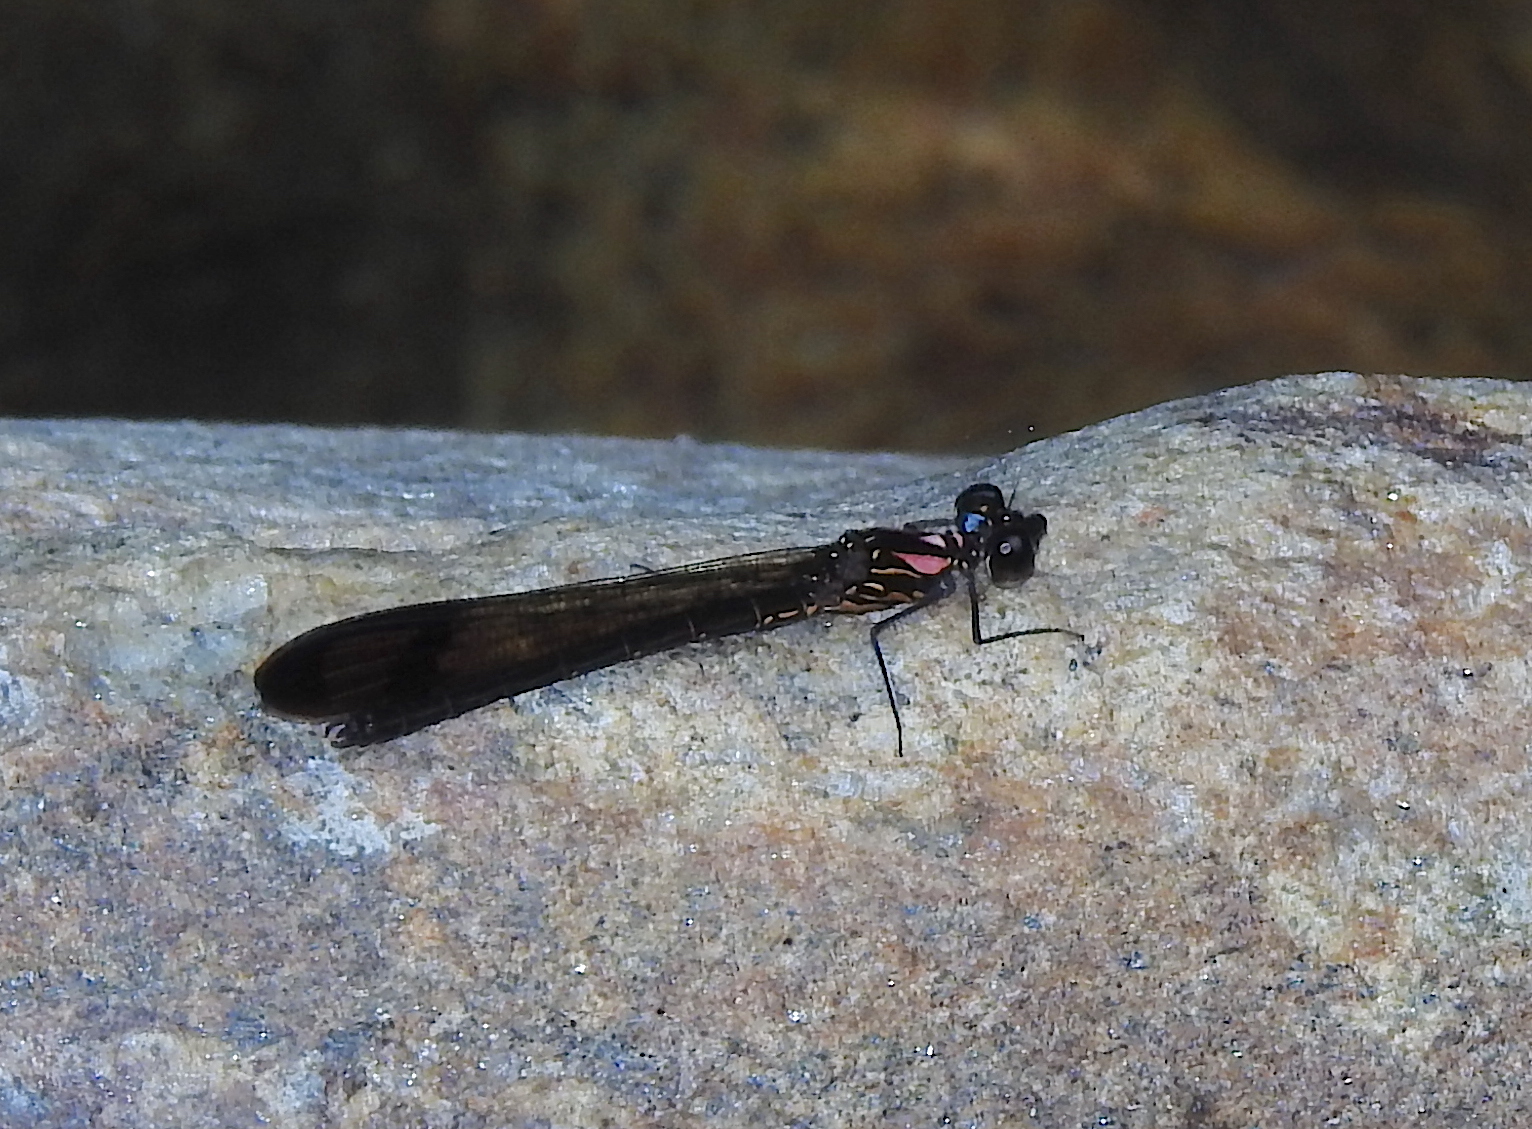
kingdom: Animalia
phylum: Arthropoda
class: Insecta
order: Odonata
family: Chlorocyphidae
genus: Heliocypha
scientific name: Heliocypha bisignata
